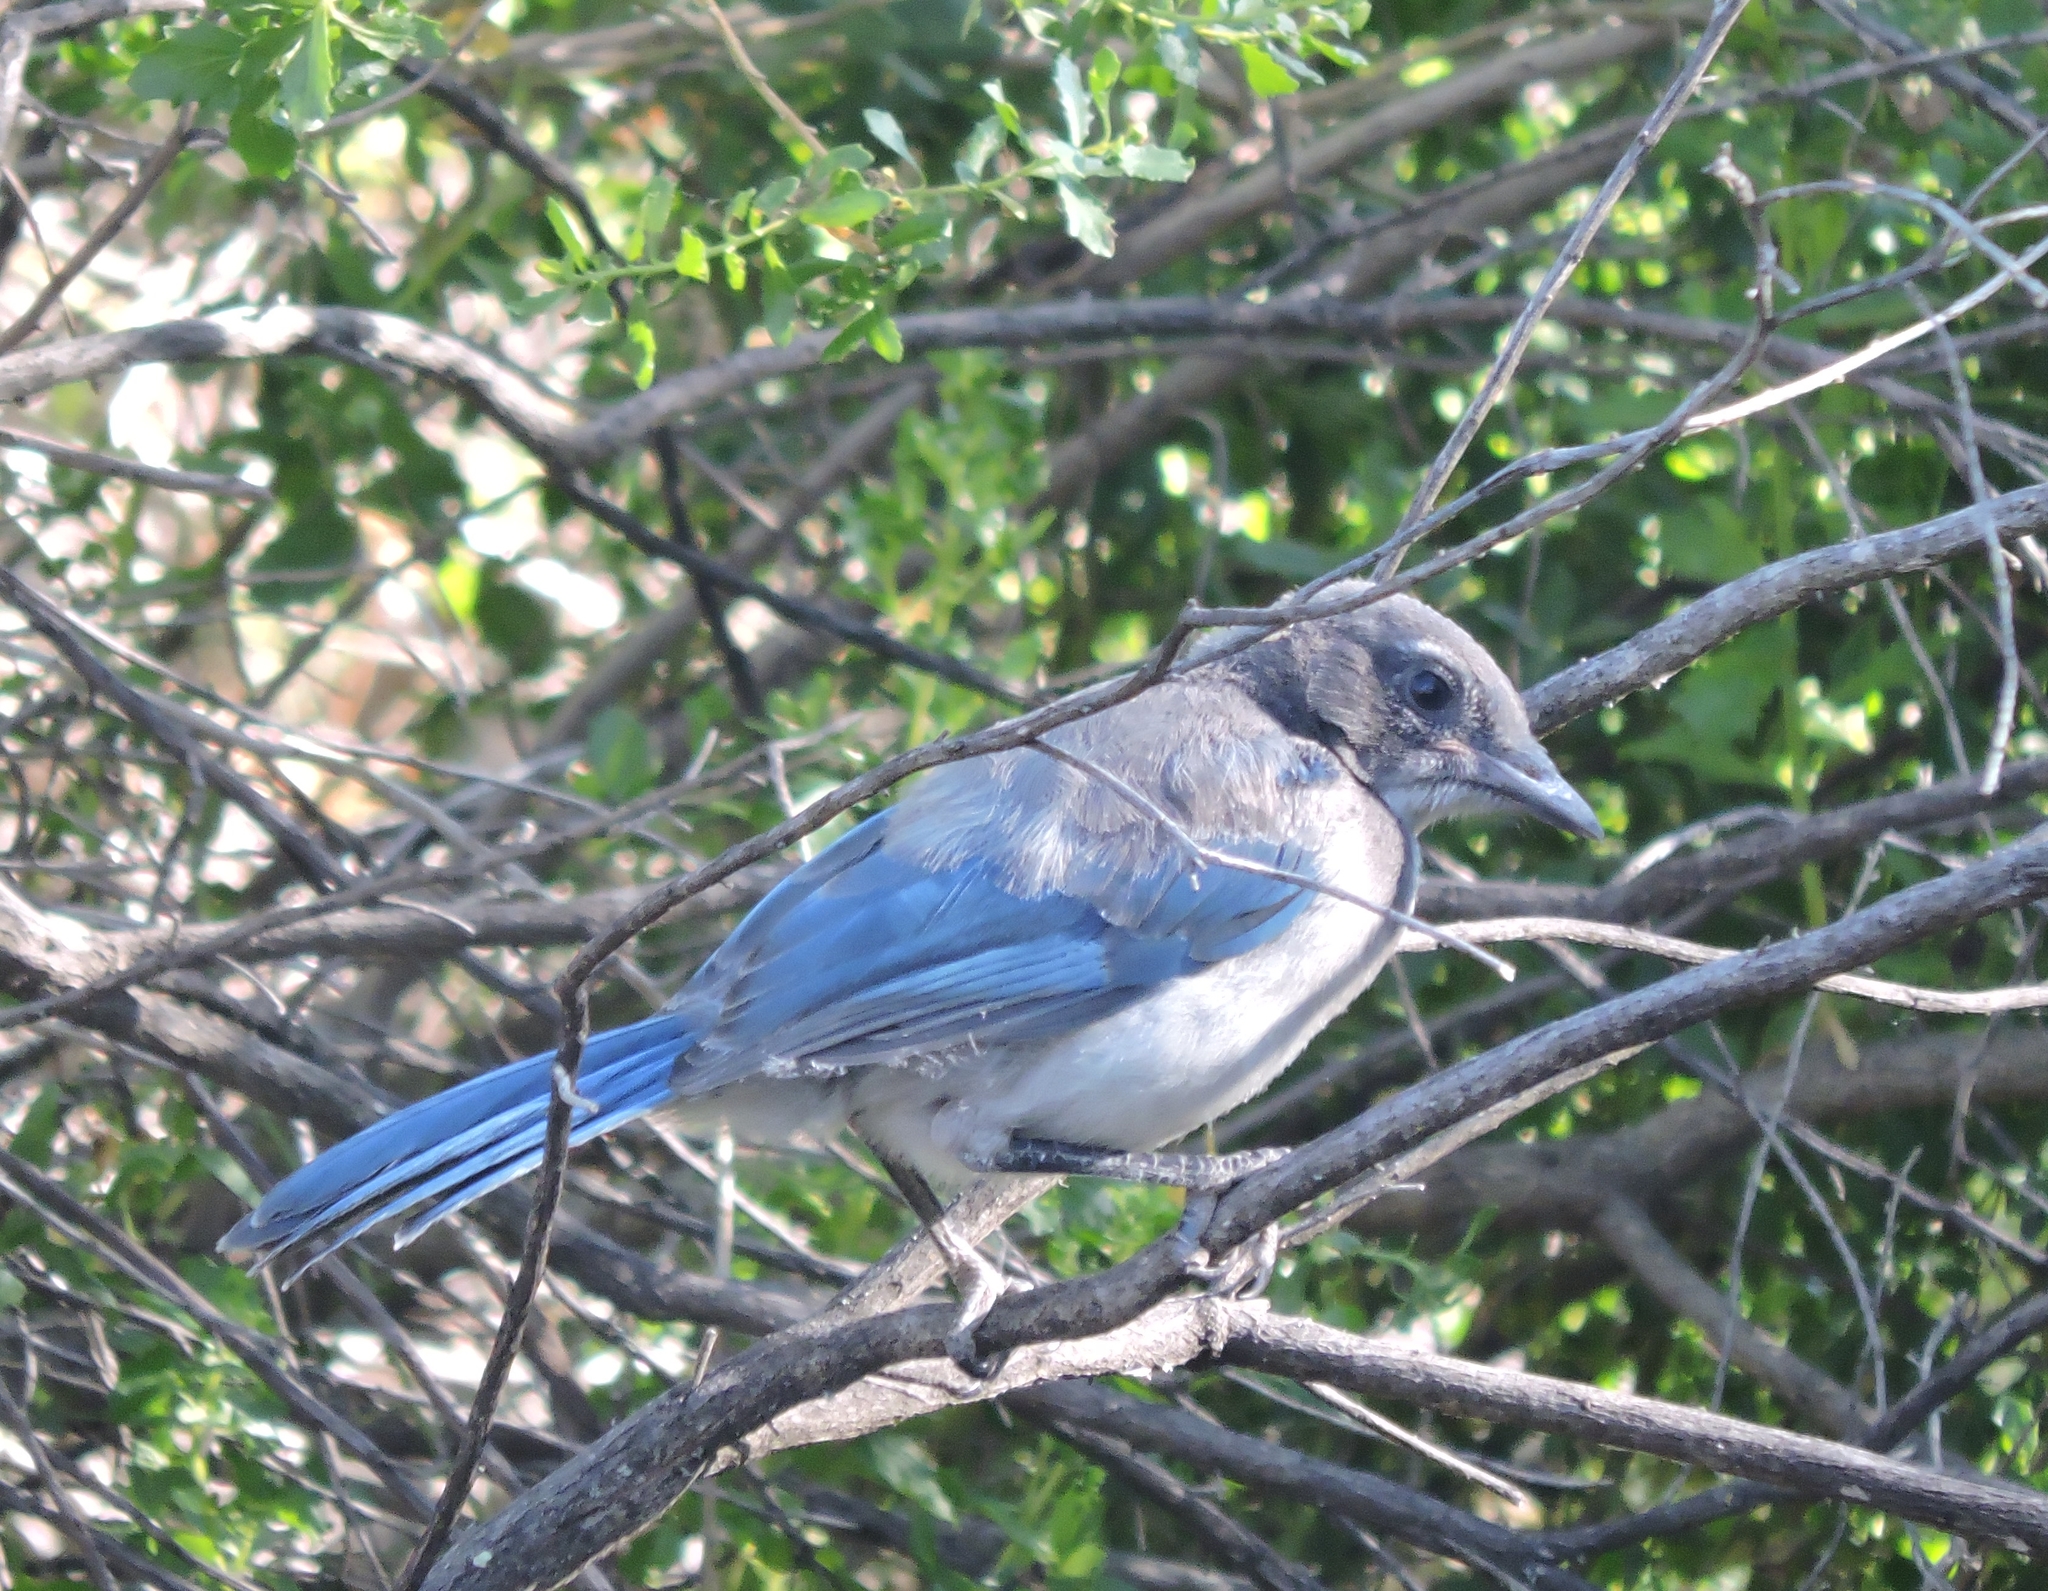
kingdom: Animalia
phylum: Chordata
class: Aves
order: Passeriformes
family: Corvidae
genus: Aphelocoma
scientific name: Aphelocoma californica
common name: California scrub-jay
